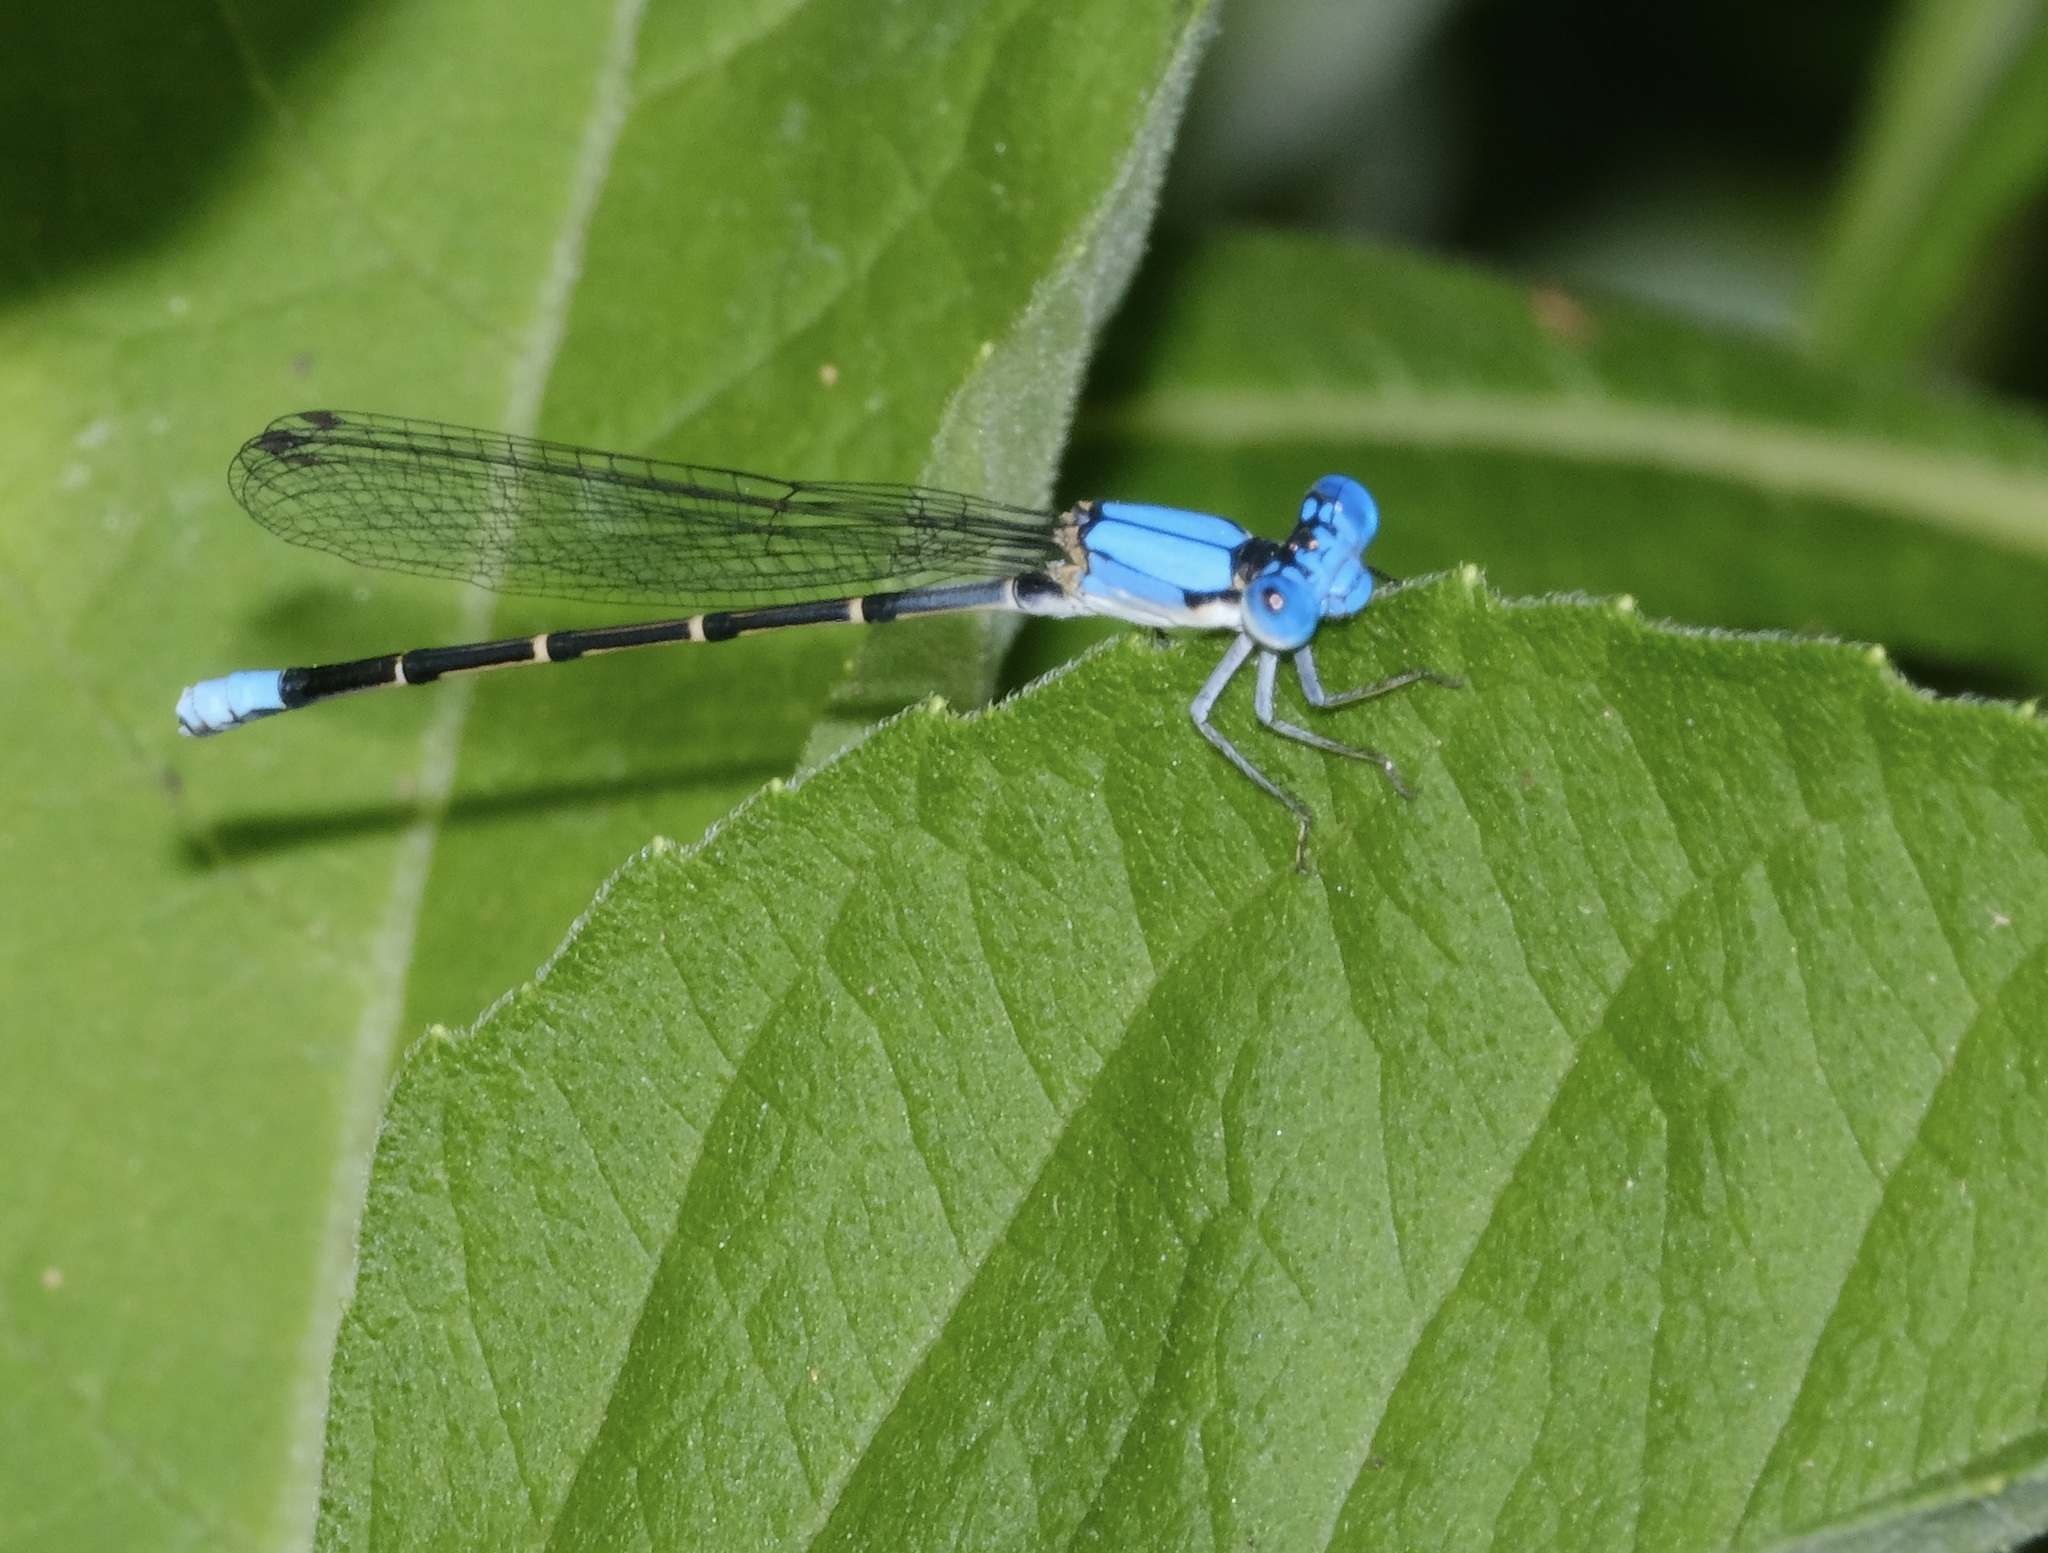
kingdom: Animalia
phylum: Arthropoda
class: Insecta
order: Odonata
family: Coenagrionidae
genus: Argia
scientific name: Argia apicalis
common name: Blue-fronted dancer
